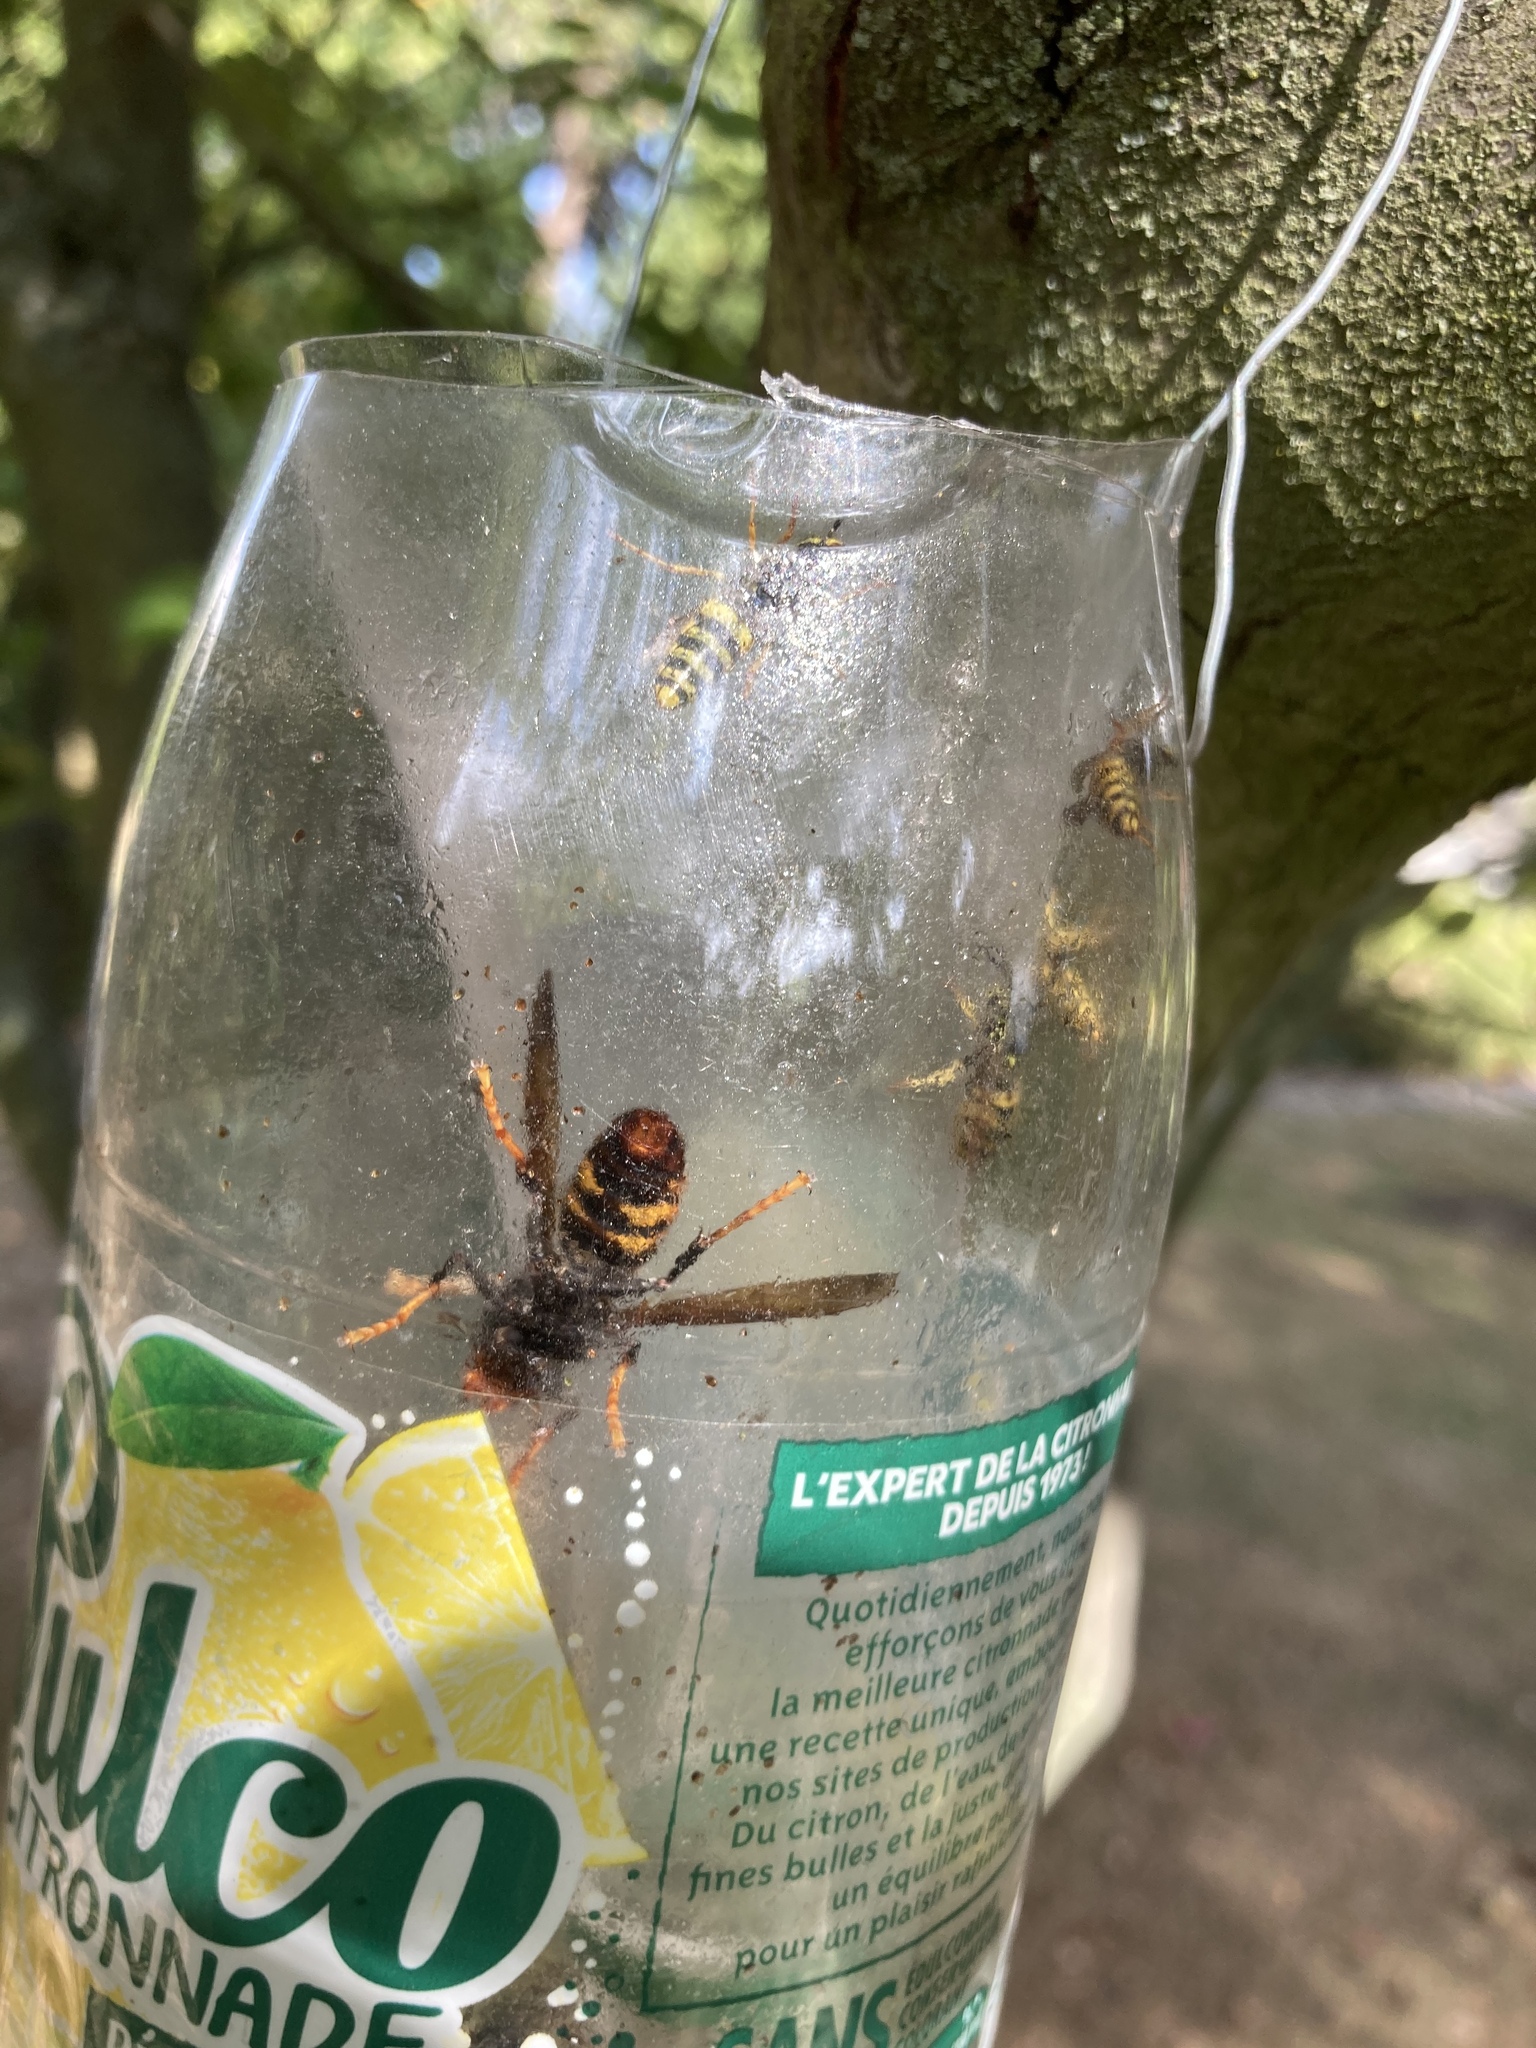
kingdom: Animalia
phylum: Arthropoda
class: Insecta
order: Hymenoptera
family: Vespidae
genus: Vespa
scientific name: Vespa velutina
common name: Asian hornet
